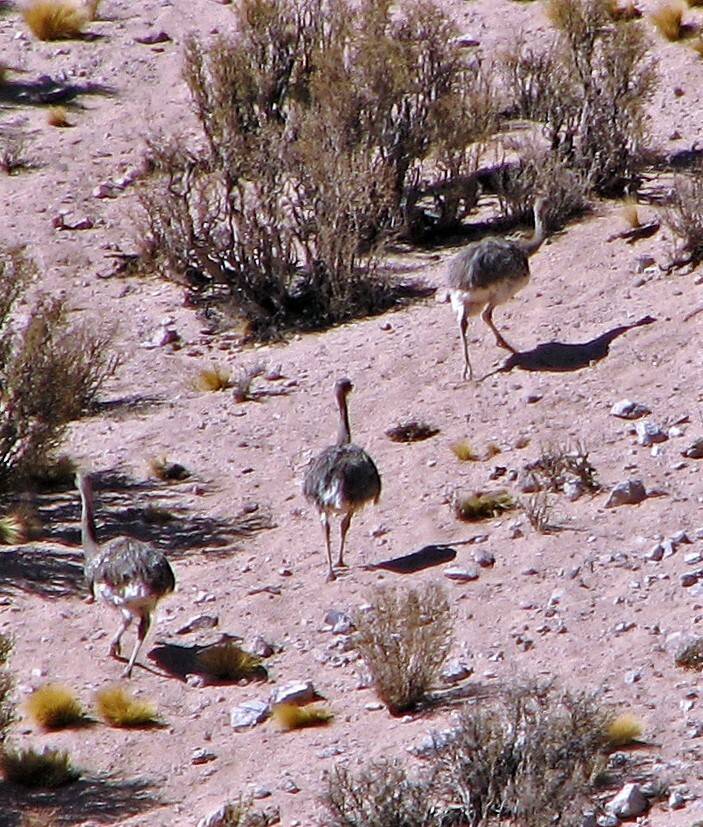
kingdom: Animalia
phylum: Chordata
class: Aves
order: Rheiformes
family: Rheidae
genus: Rhea
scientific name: Rhea pennata
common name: Lesser rhea
